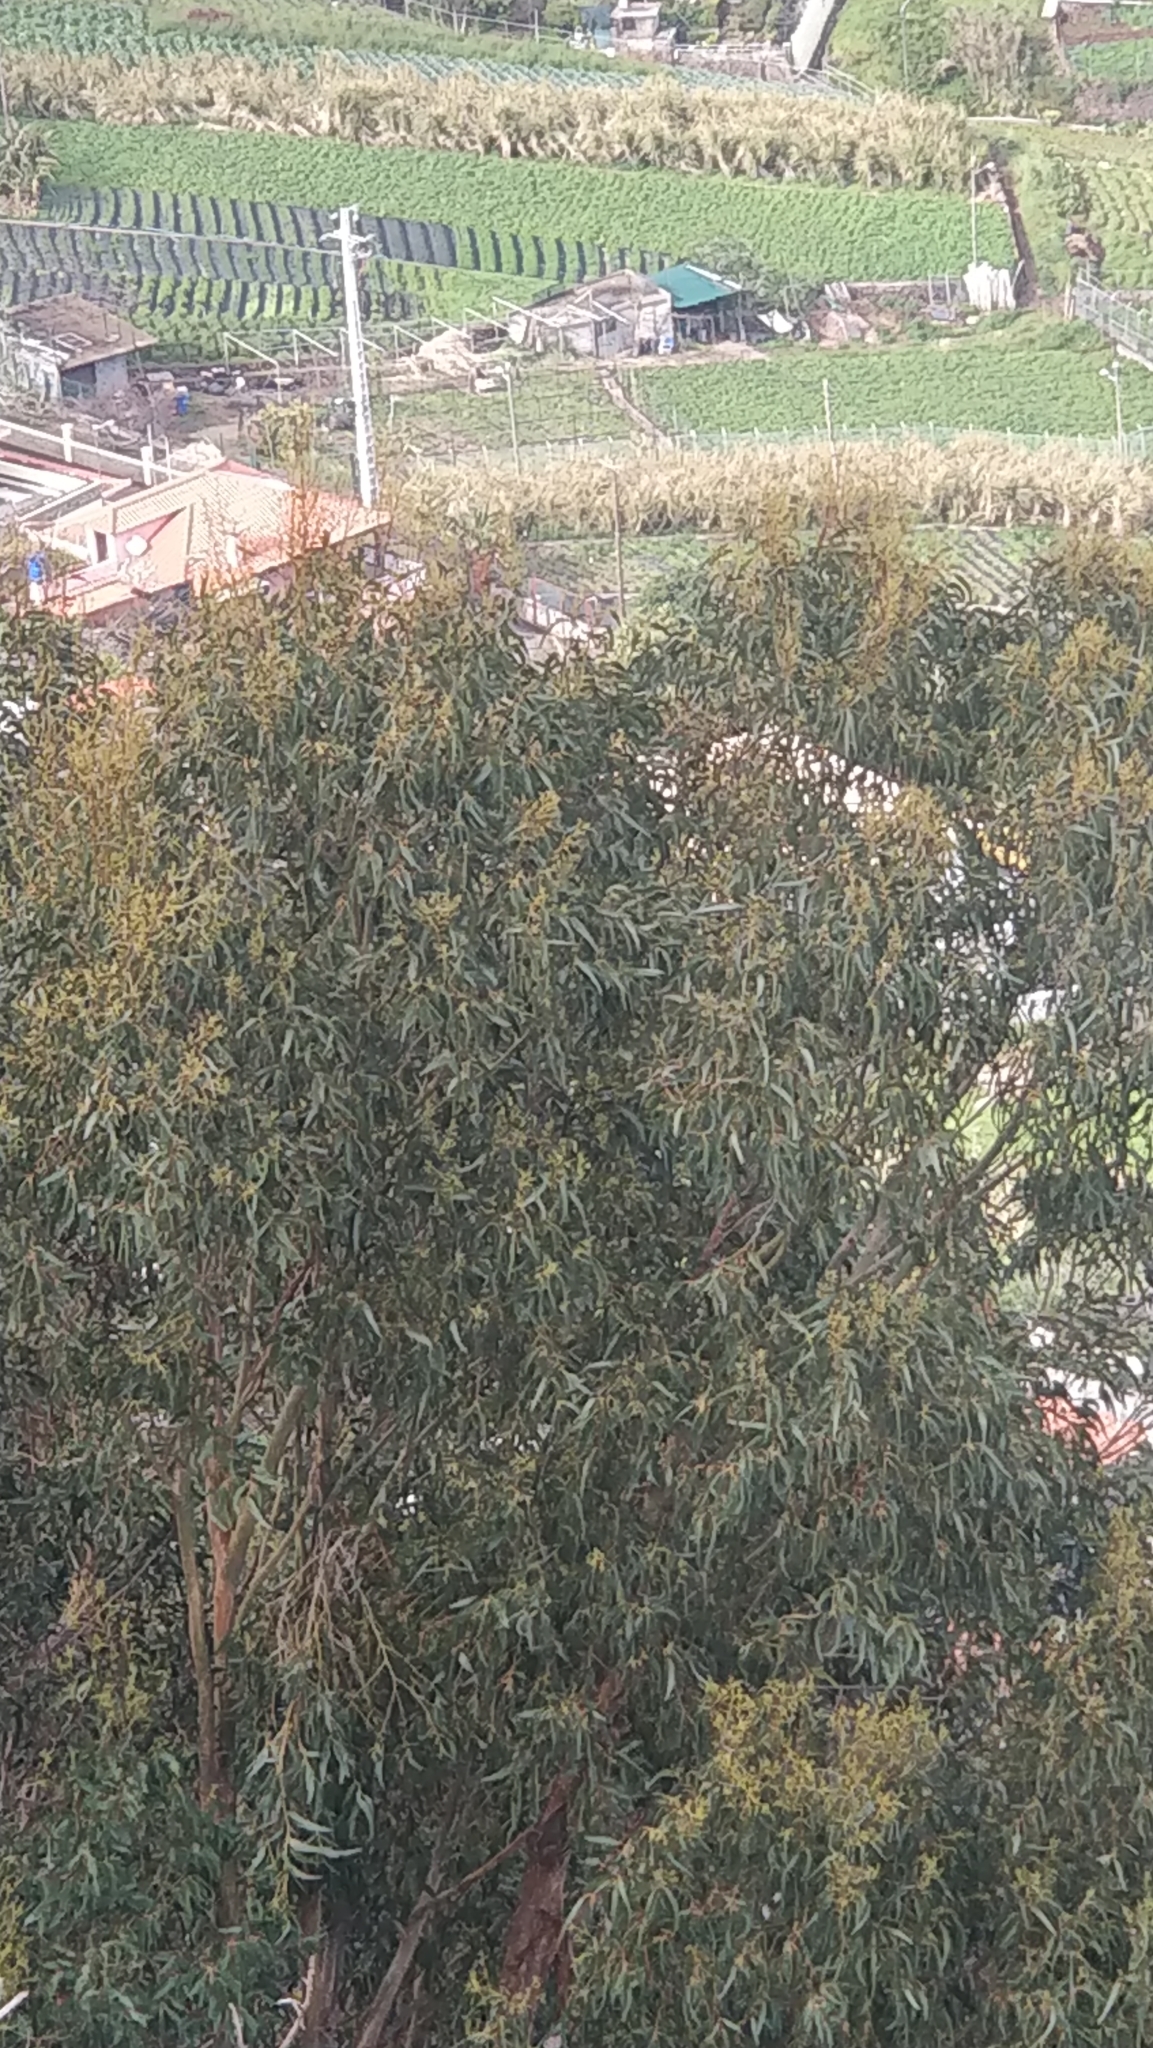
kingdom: Plantae
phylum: Tracheophyta
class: Magnoliopsida
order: Myrtales
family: Myrtaceae
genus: Eucalyptus
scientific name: Eucalyptus globulus
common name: Southern blue-gum
